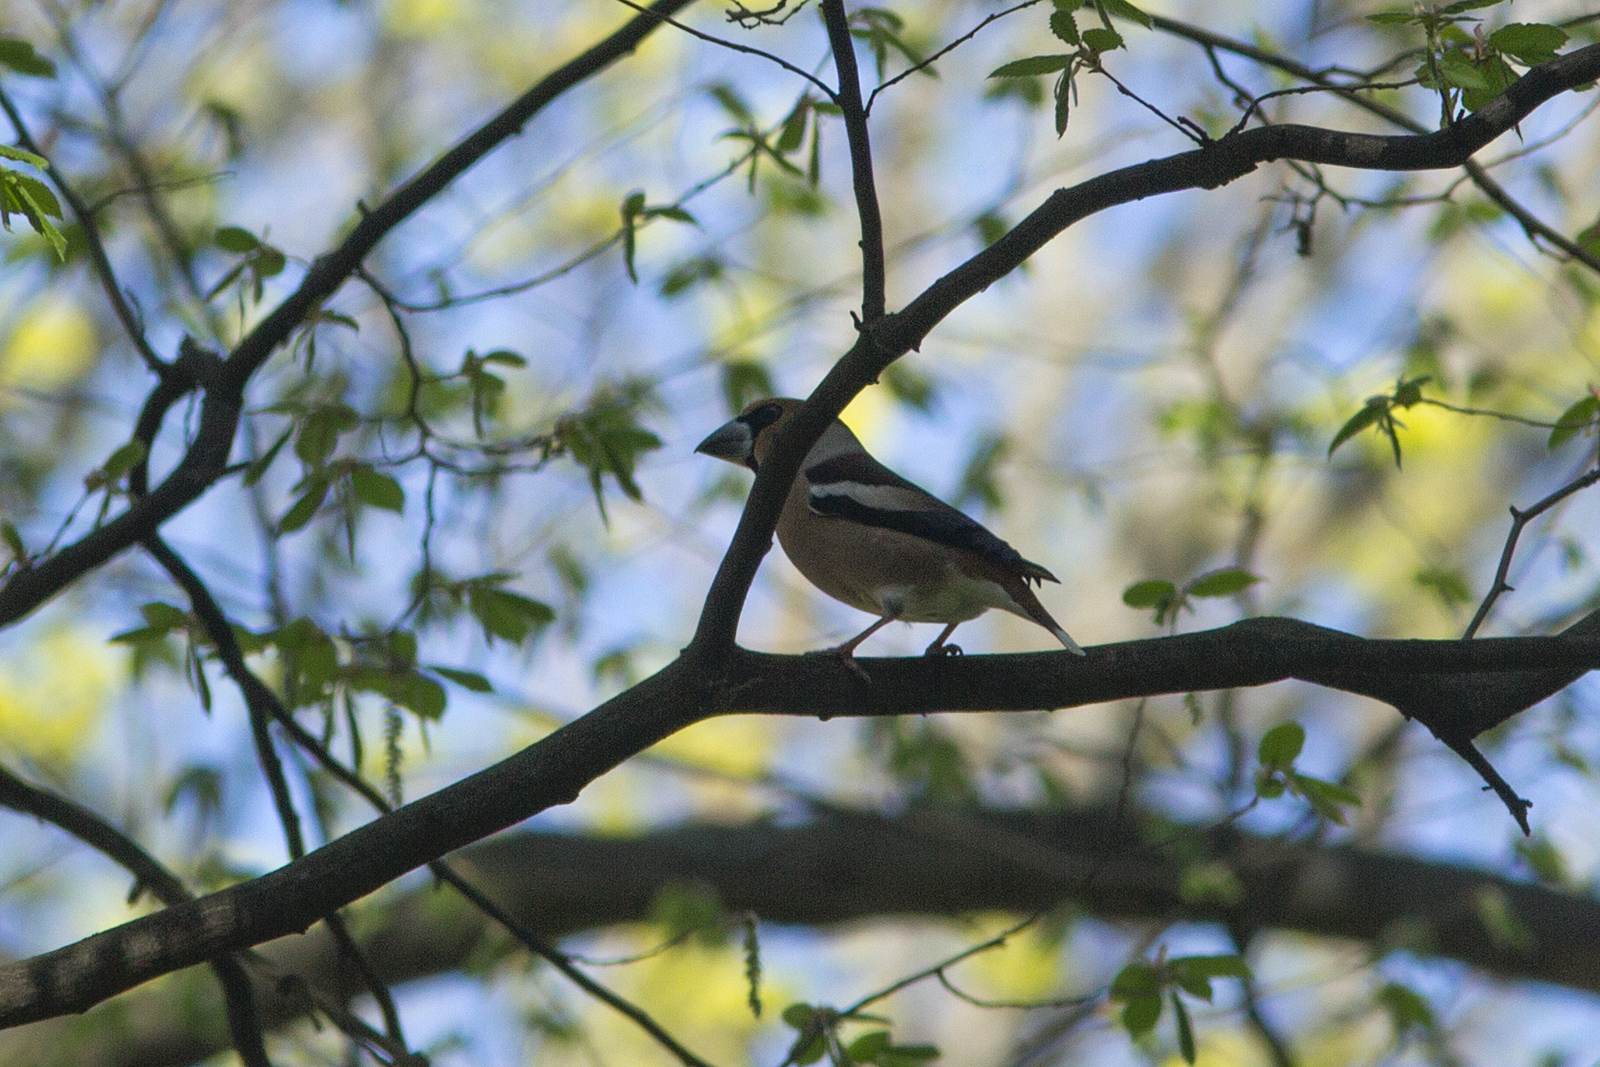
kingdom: Animalia
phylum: Chordata
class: Aves
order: Passeriformes
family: Fringillidae
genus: Coccothraustes
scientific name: Coccothraustes coccothraustes
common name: Hawfinch
